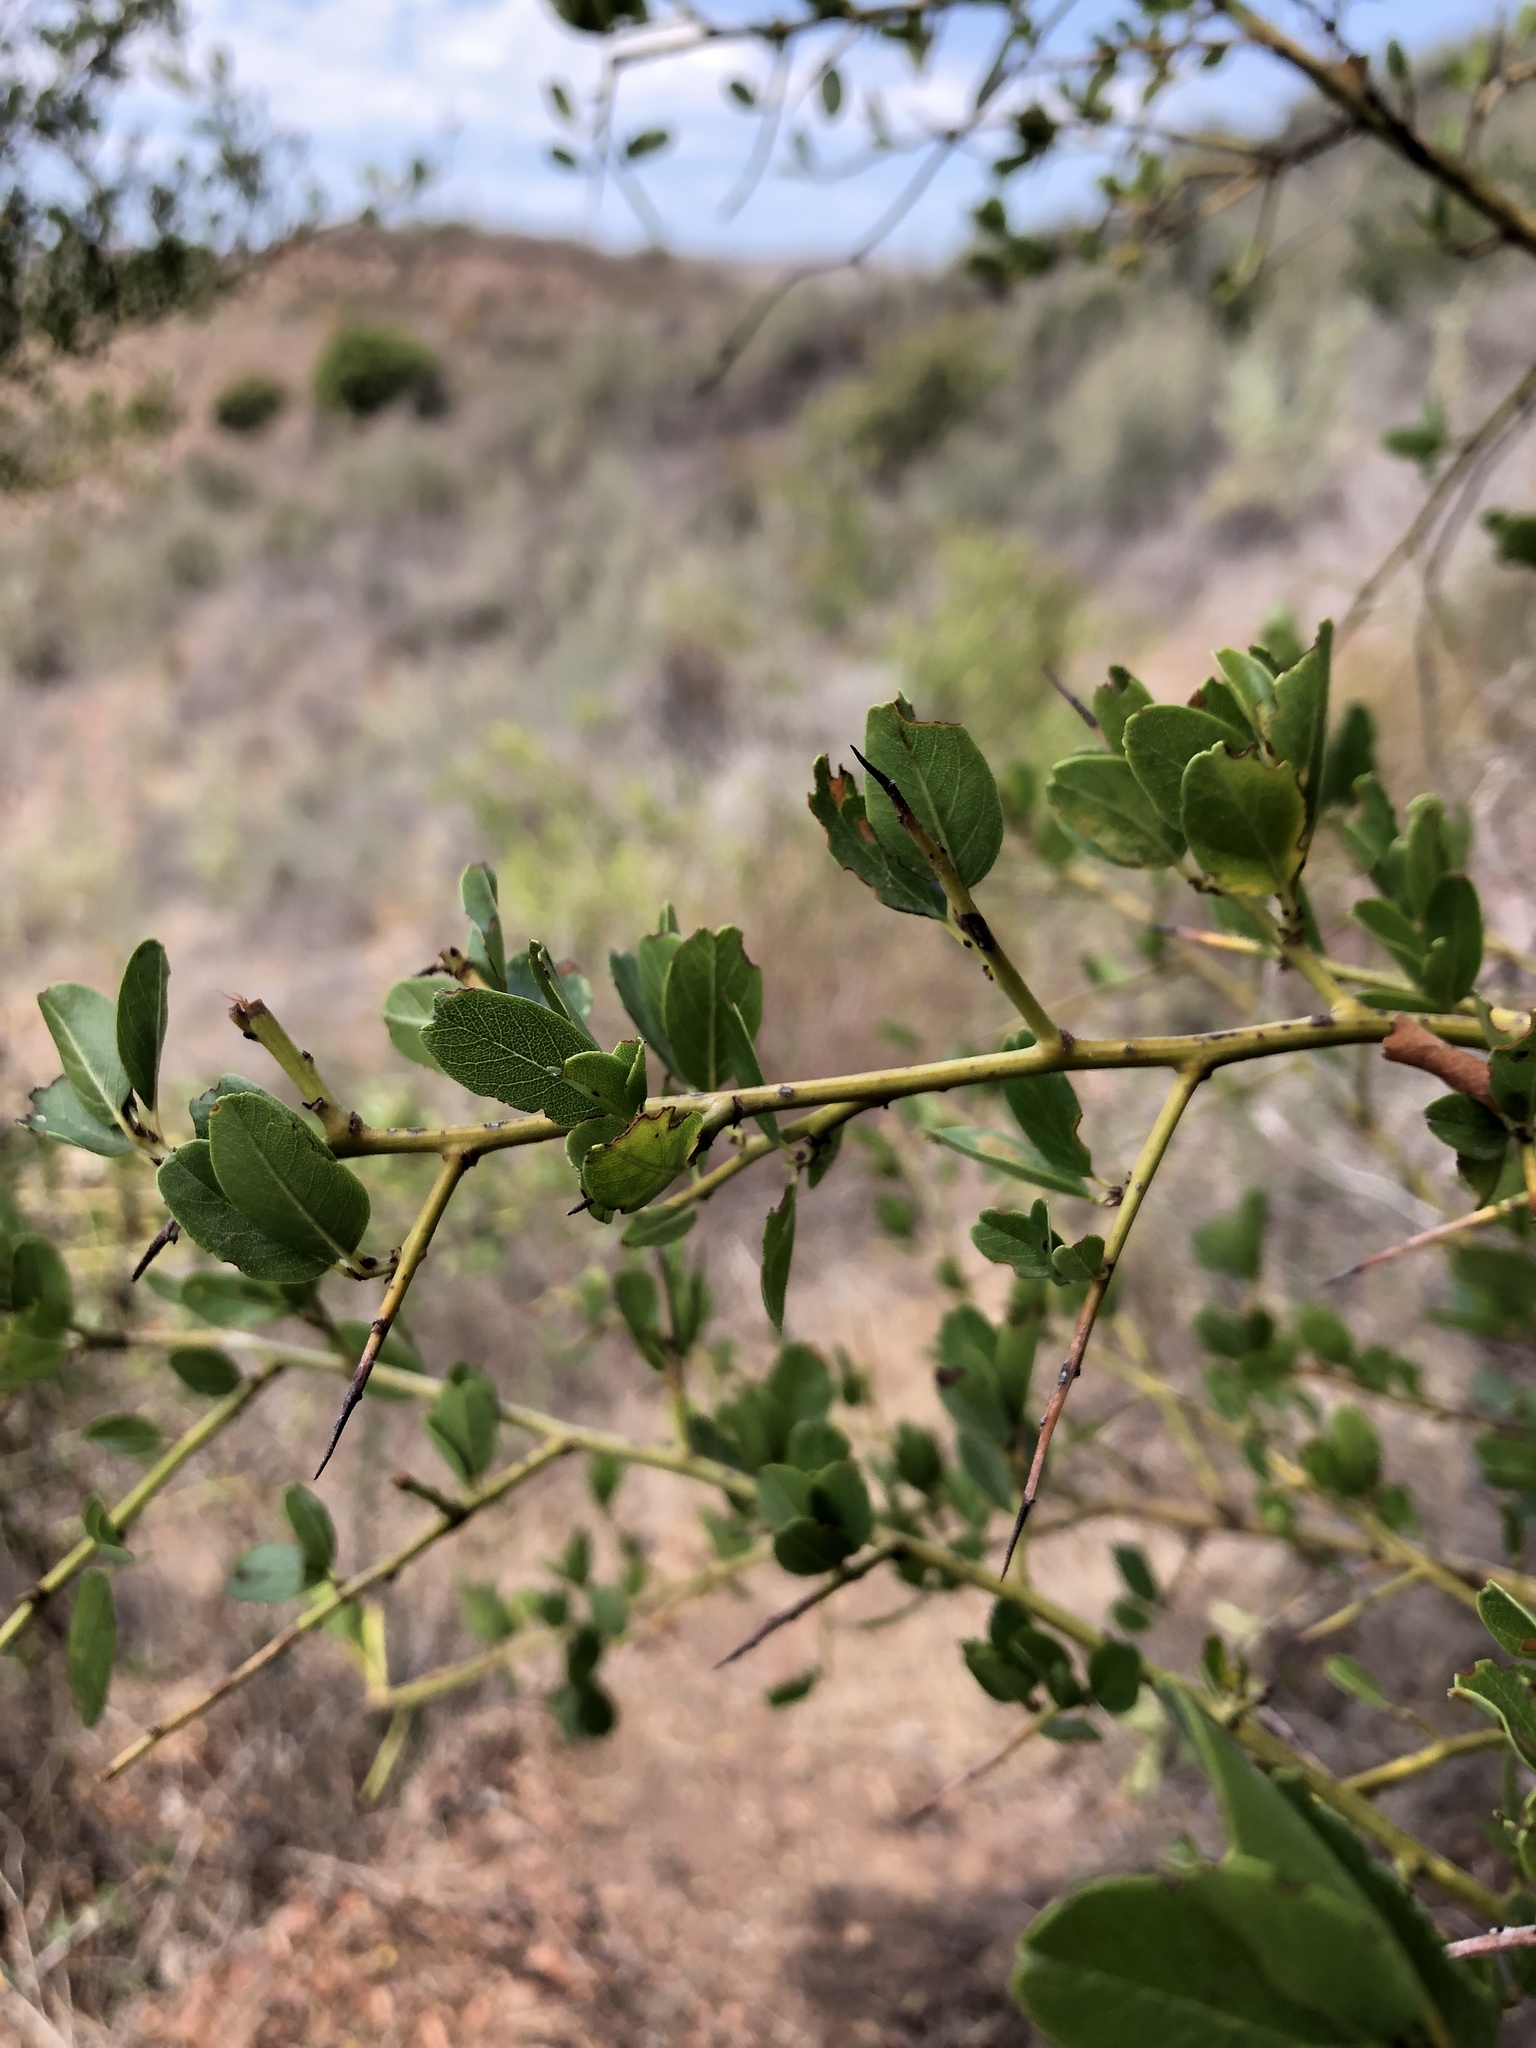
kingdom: Plantae
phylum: Tracheophyta
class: Magnoliopsida
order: Rosales
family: Rhamnaceae
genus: Ceanothus
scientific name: Ceanothus spinosus
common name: Greenbark whitethorn
